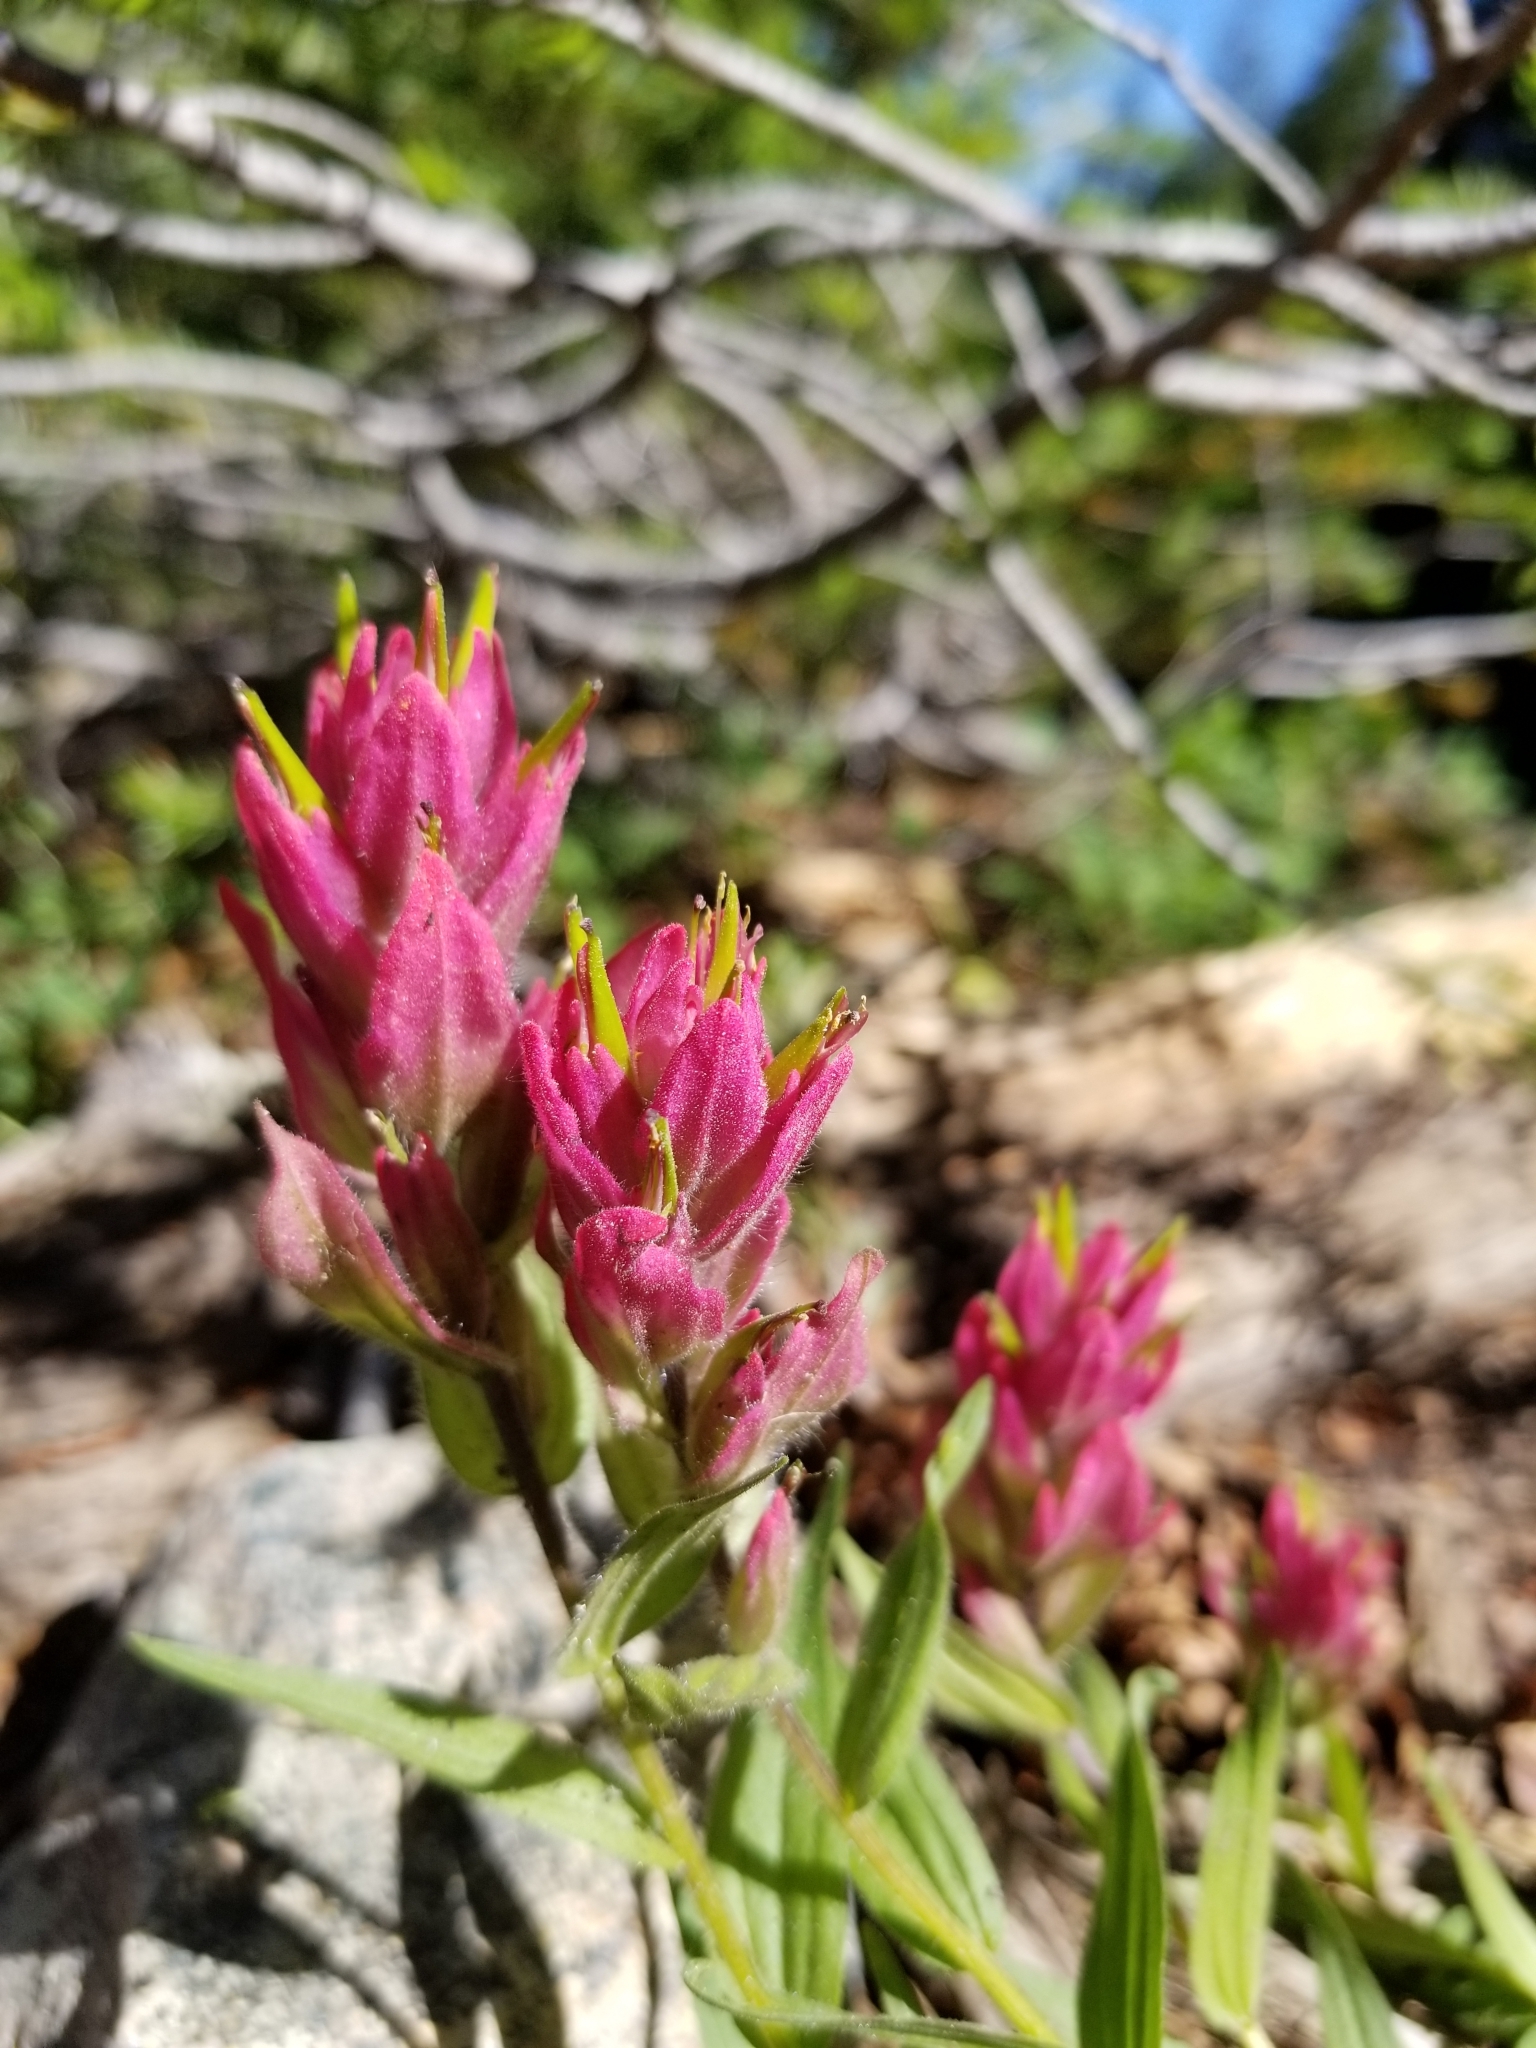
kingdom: Plantae
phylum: Tracheophyta
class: Magnoliopsida
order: Lamiales
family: Orobanchaceae
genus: Castilleja
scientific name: Castilleja rhexifolia
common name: Rocky mountain paintbrush
